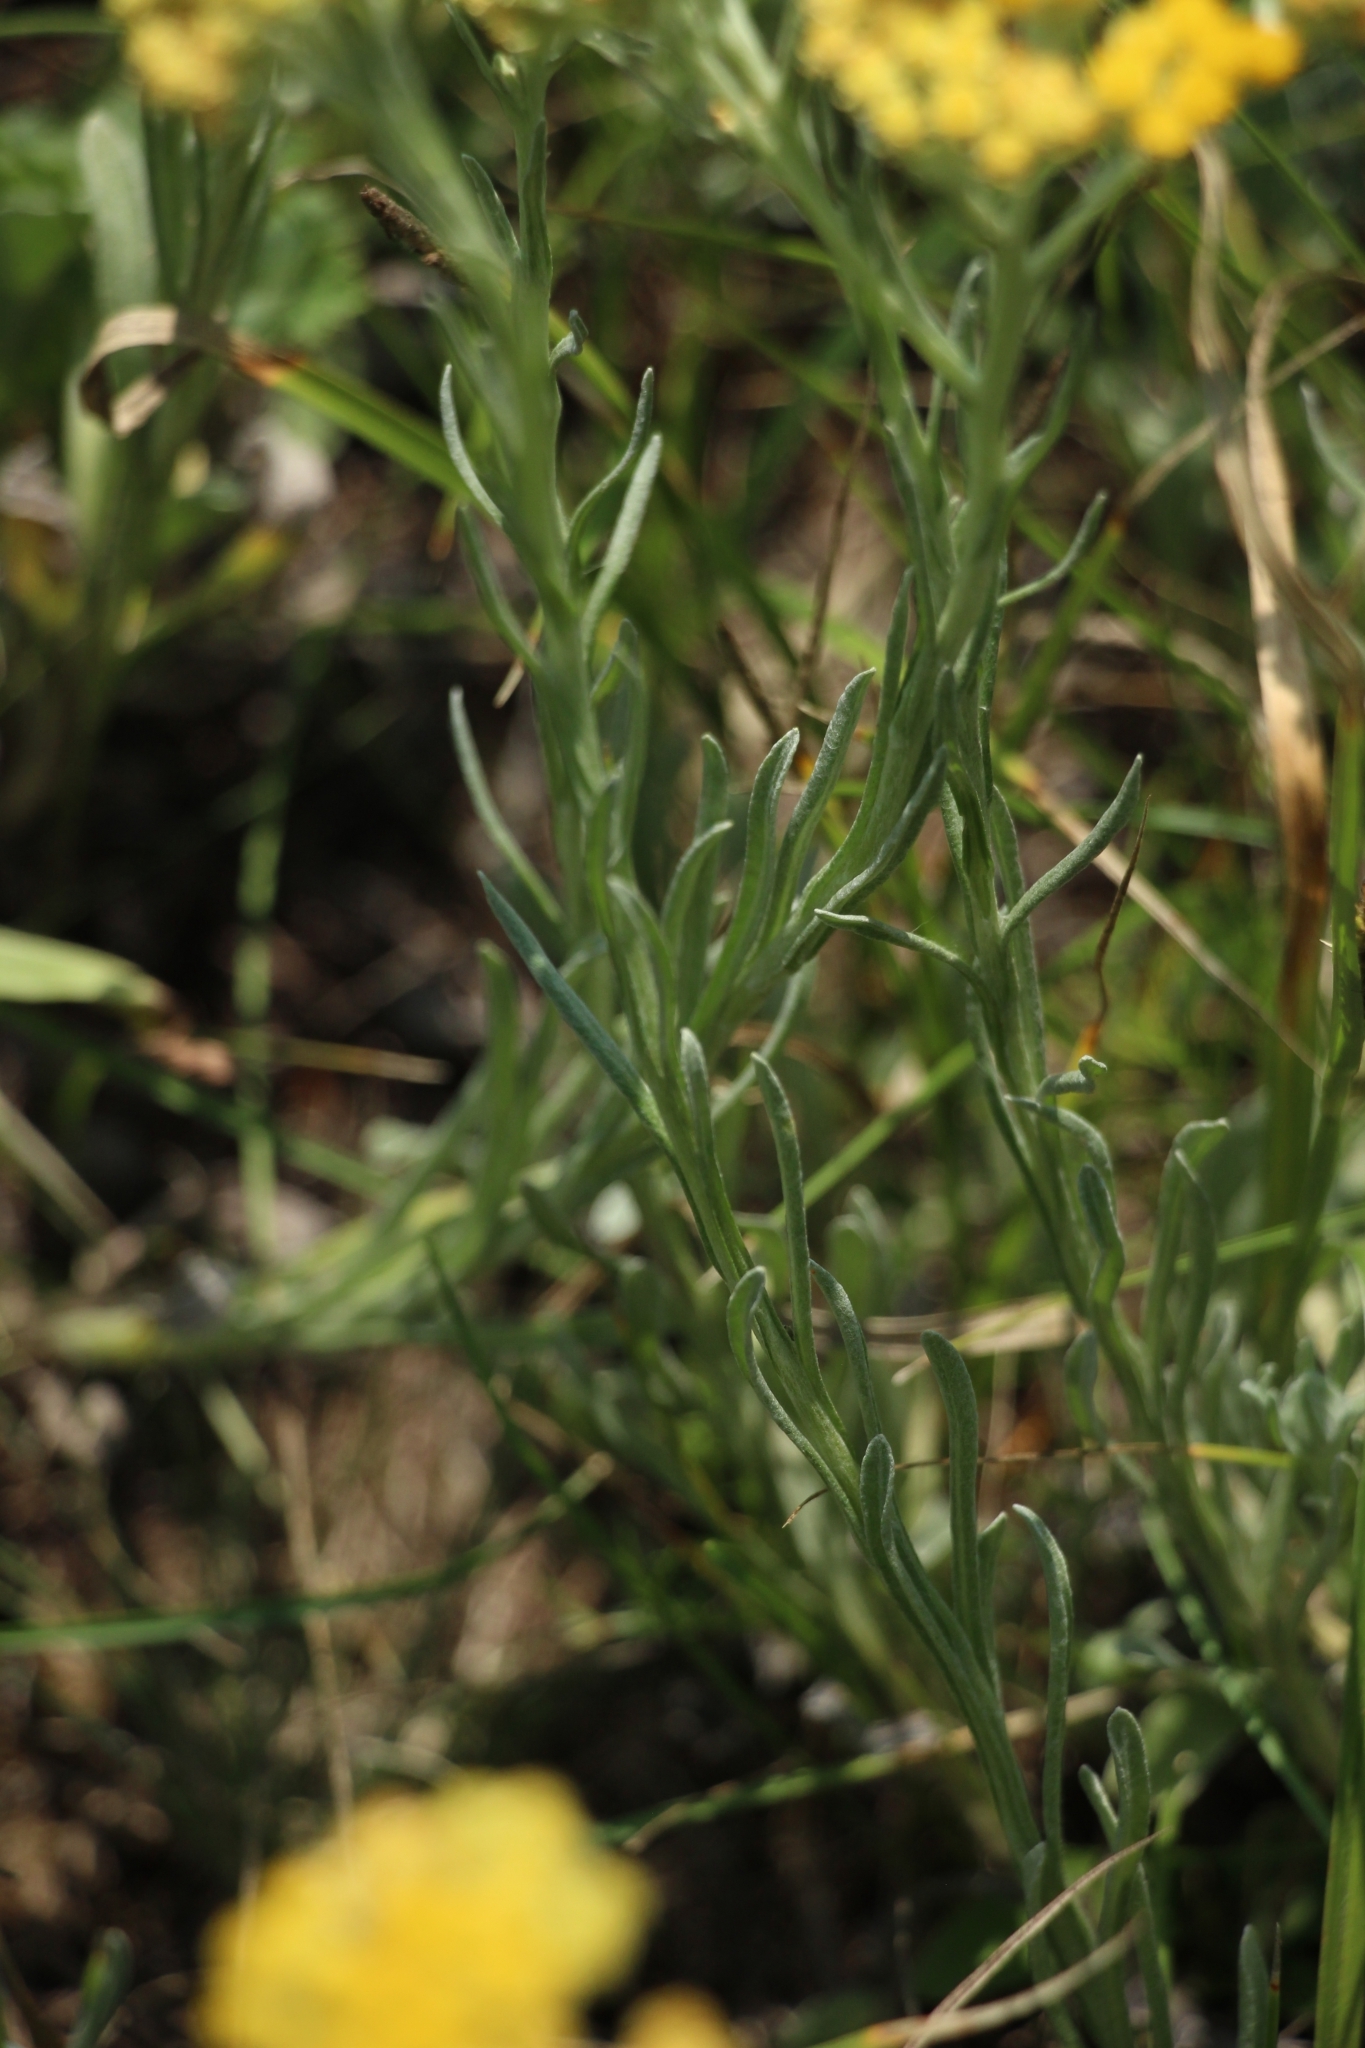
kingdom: Plantae
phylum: Tracheophyta
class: Magnoliopsida
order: Asterales
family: Asteraceae
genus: Helichrysum
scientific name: Helichrysum arenarium
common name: Strawflower
